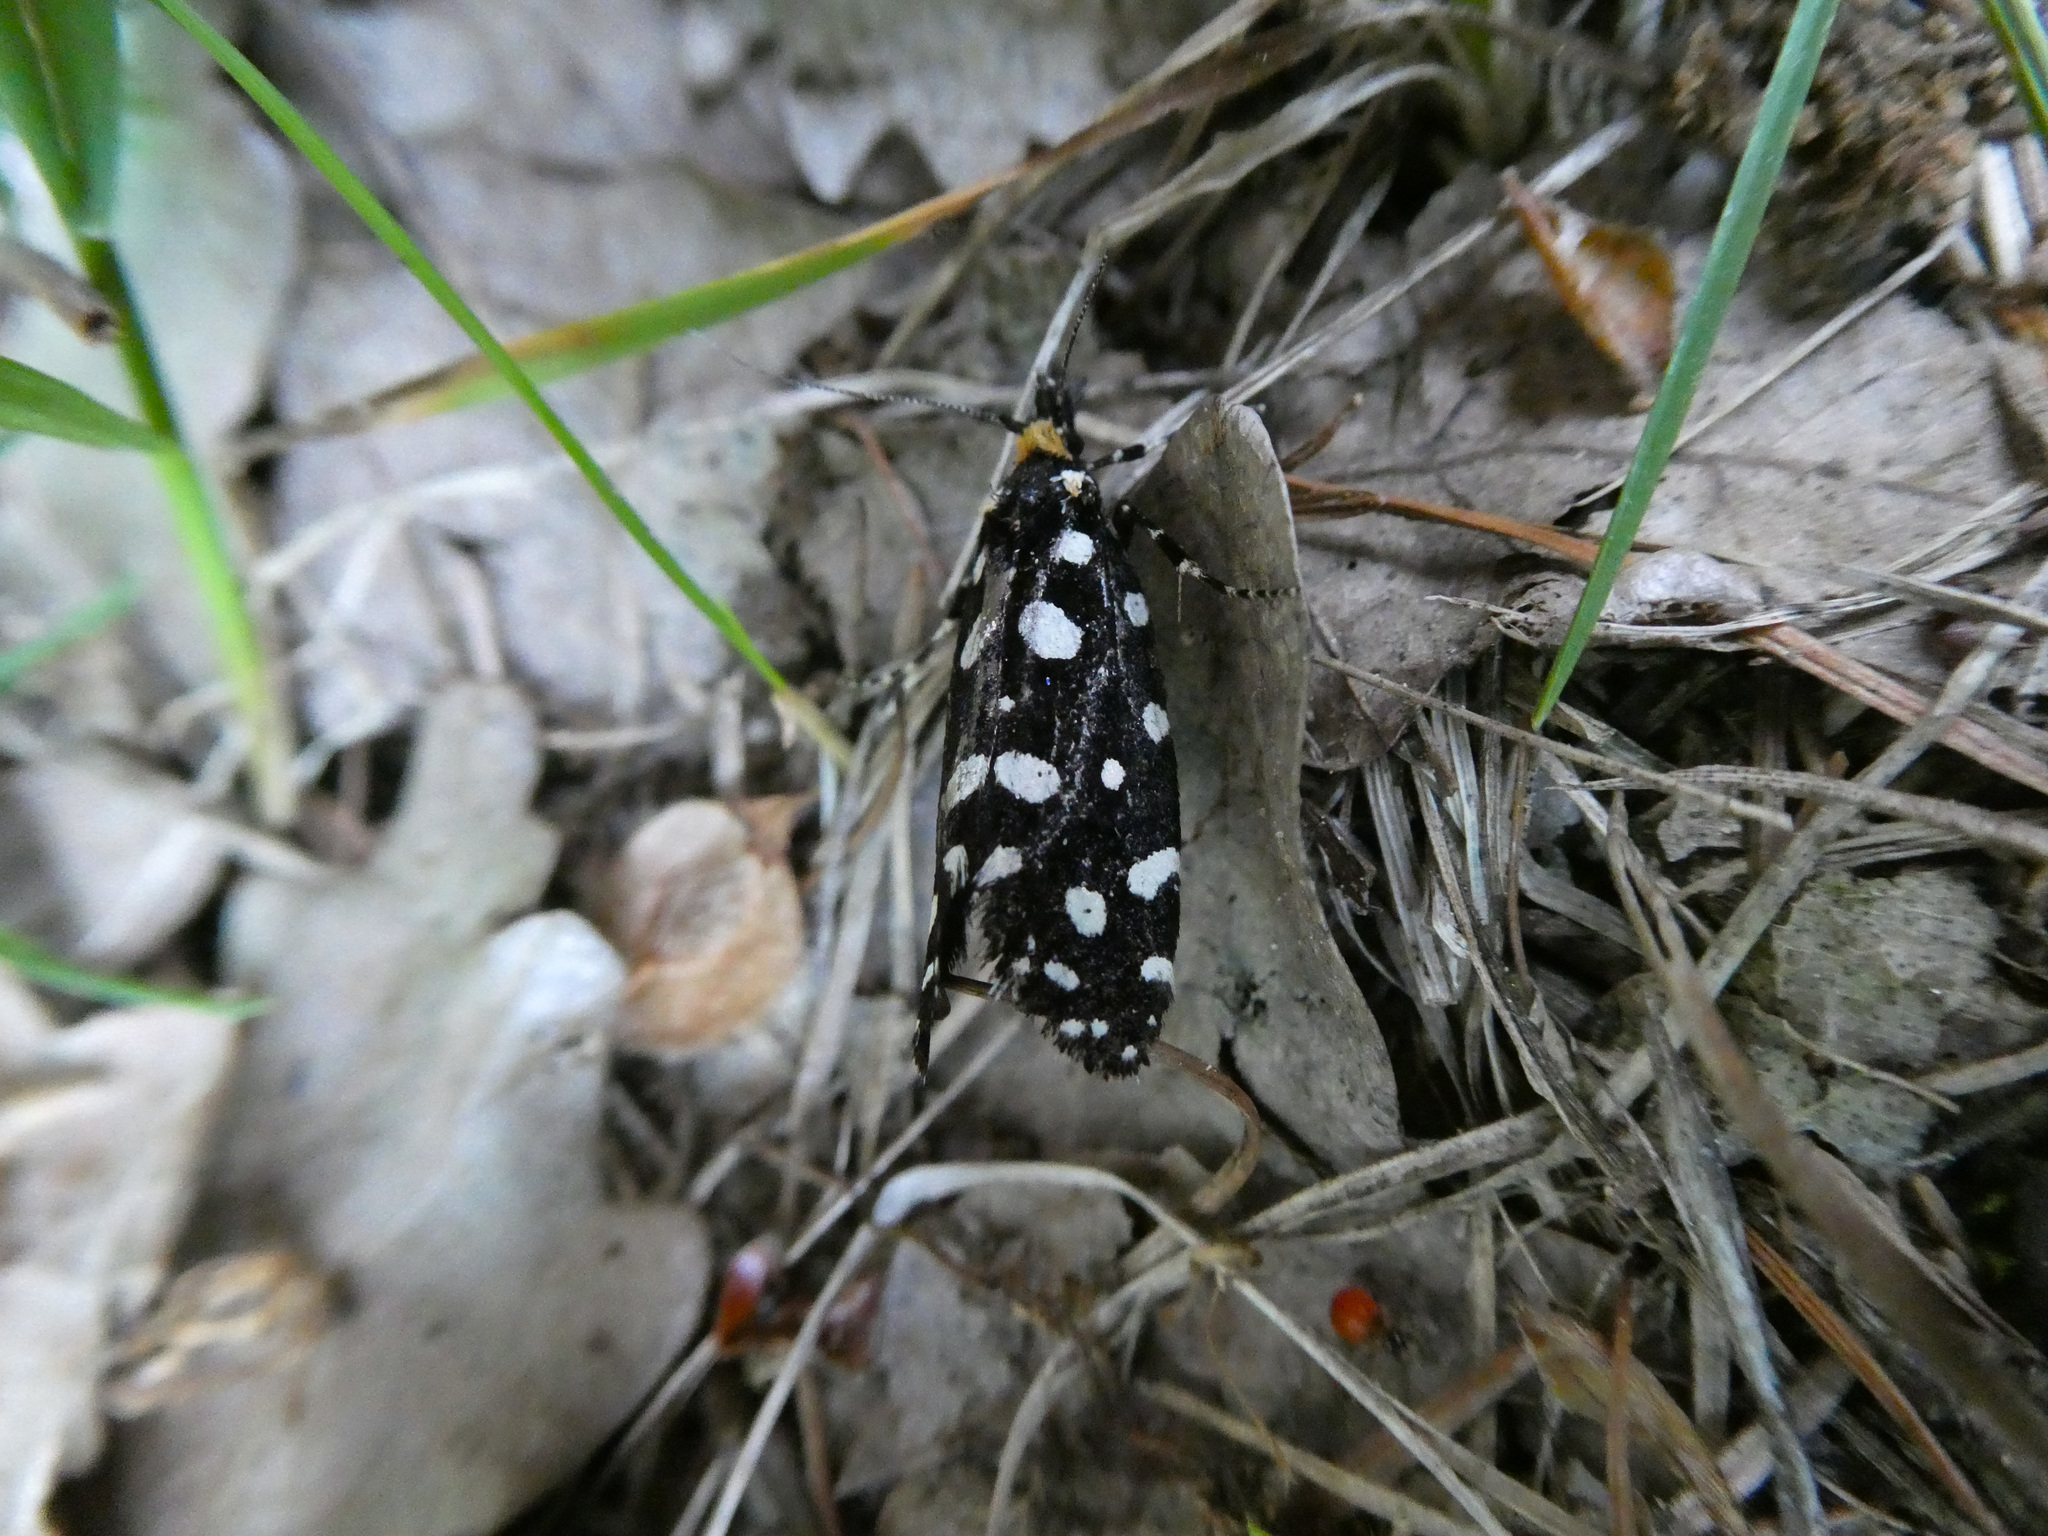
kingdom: Animalia
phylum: Arthropoda
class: Insecta
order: Lepidoptera
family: Tineidae
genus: Euplocamus
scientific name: Euplocamus anthracinalis
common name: Black clothes
